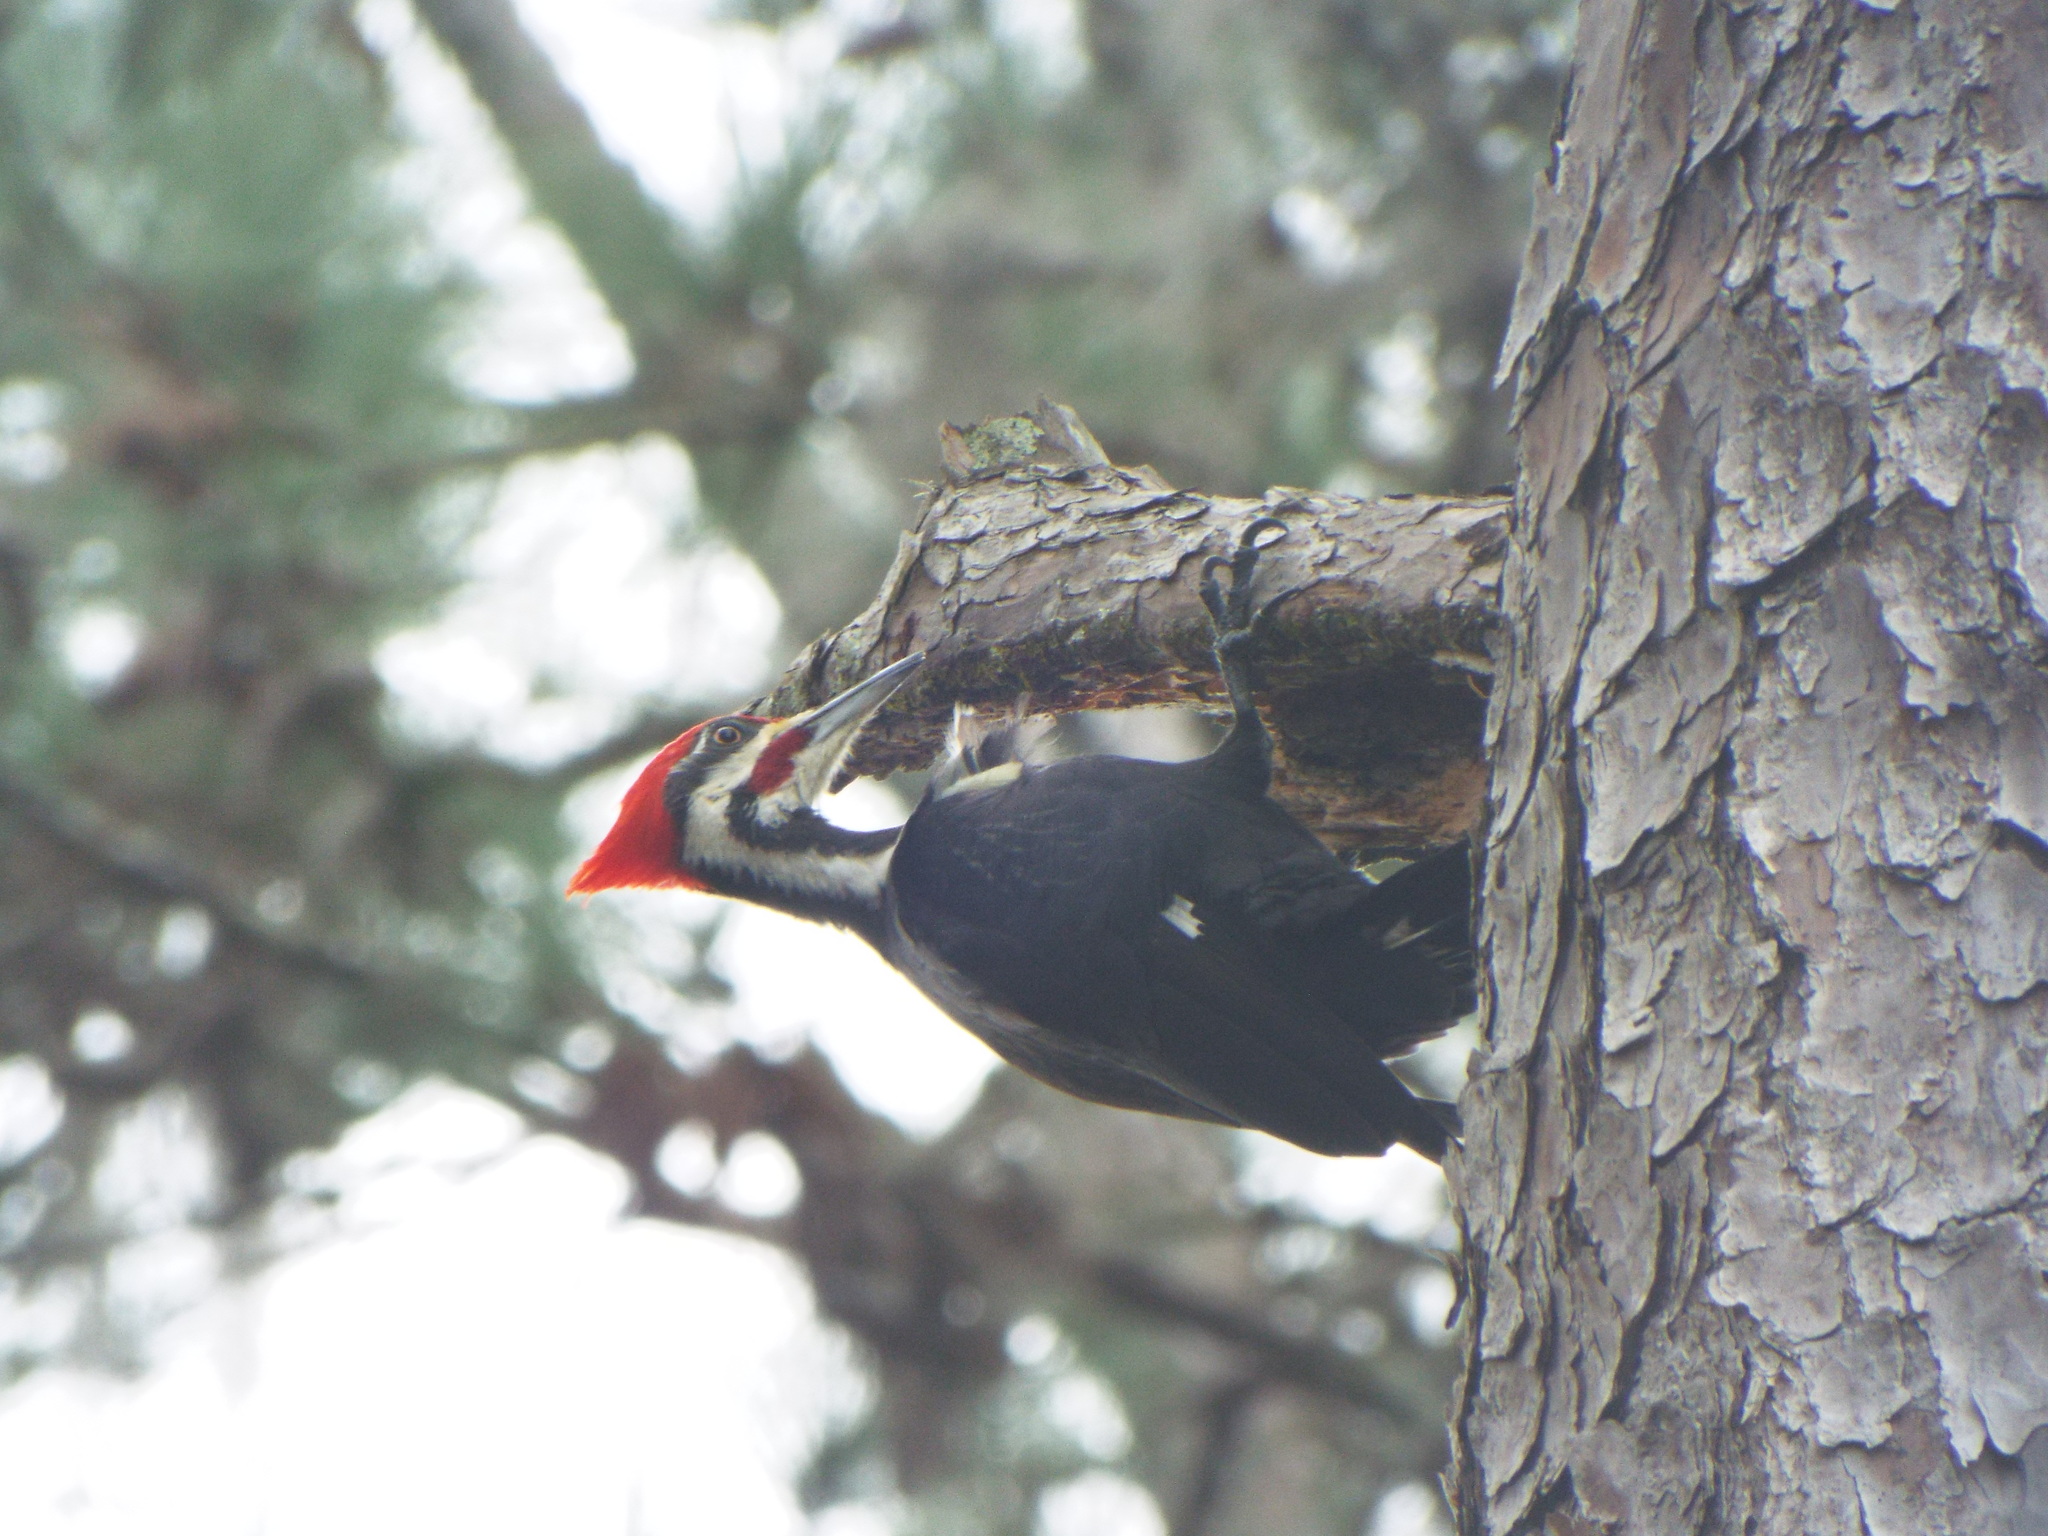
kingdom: Animalia
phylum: Chordata
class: Aves
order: Piciformes
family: Picidae
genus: Dryocopus
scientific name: Dryocopus pileatus
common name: Pileated woodpecker
